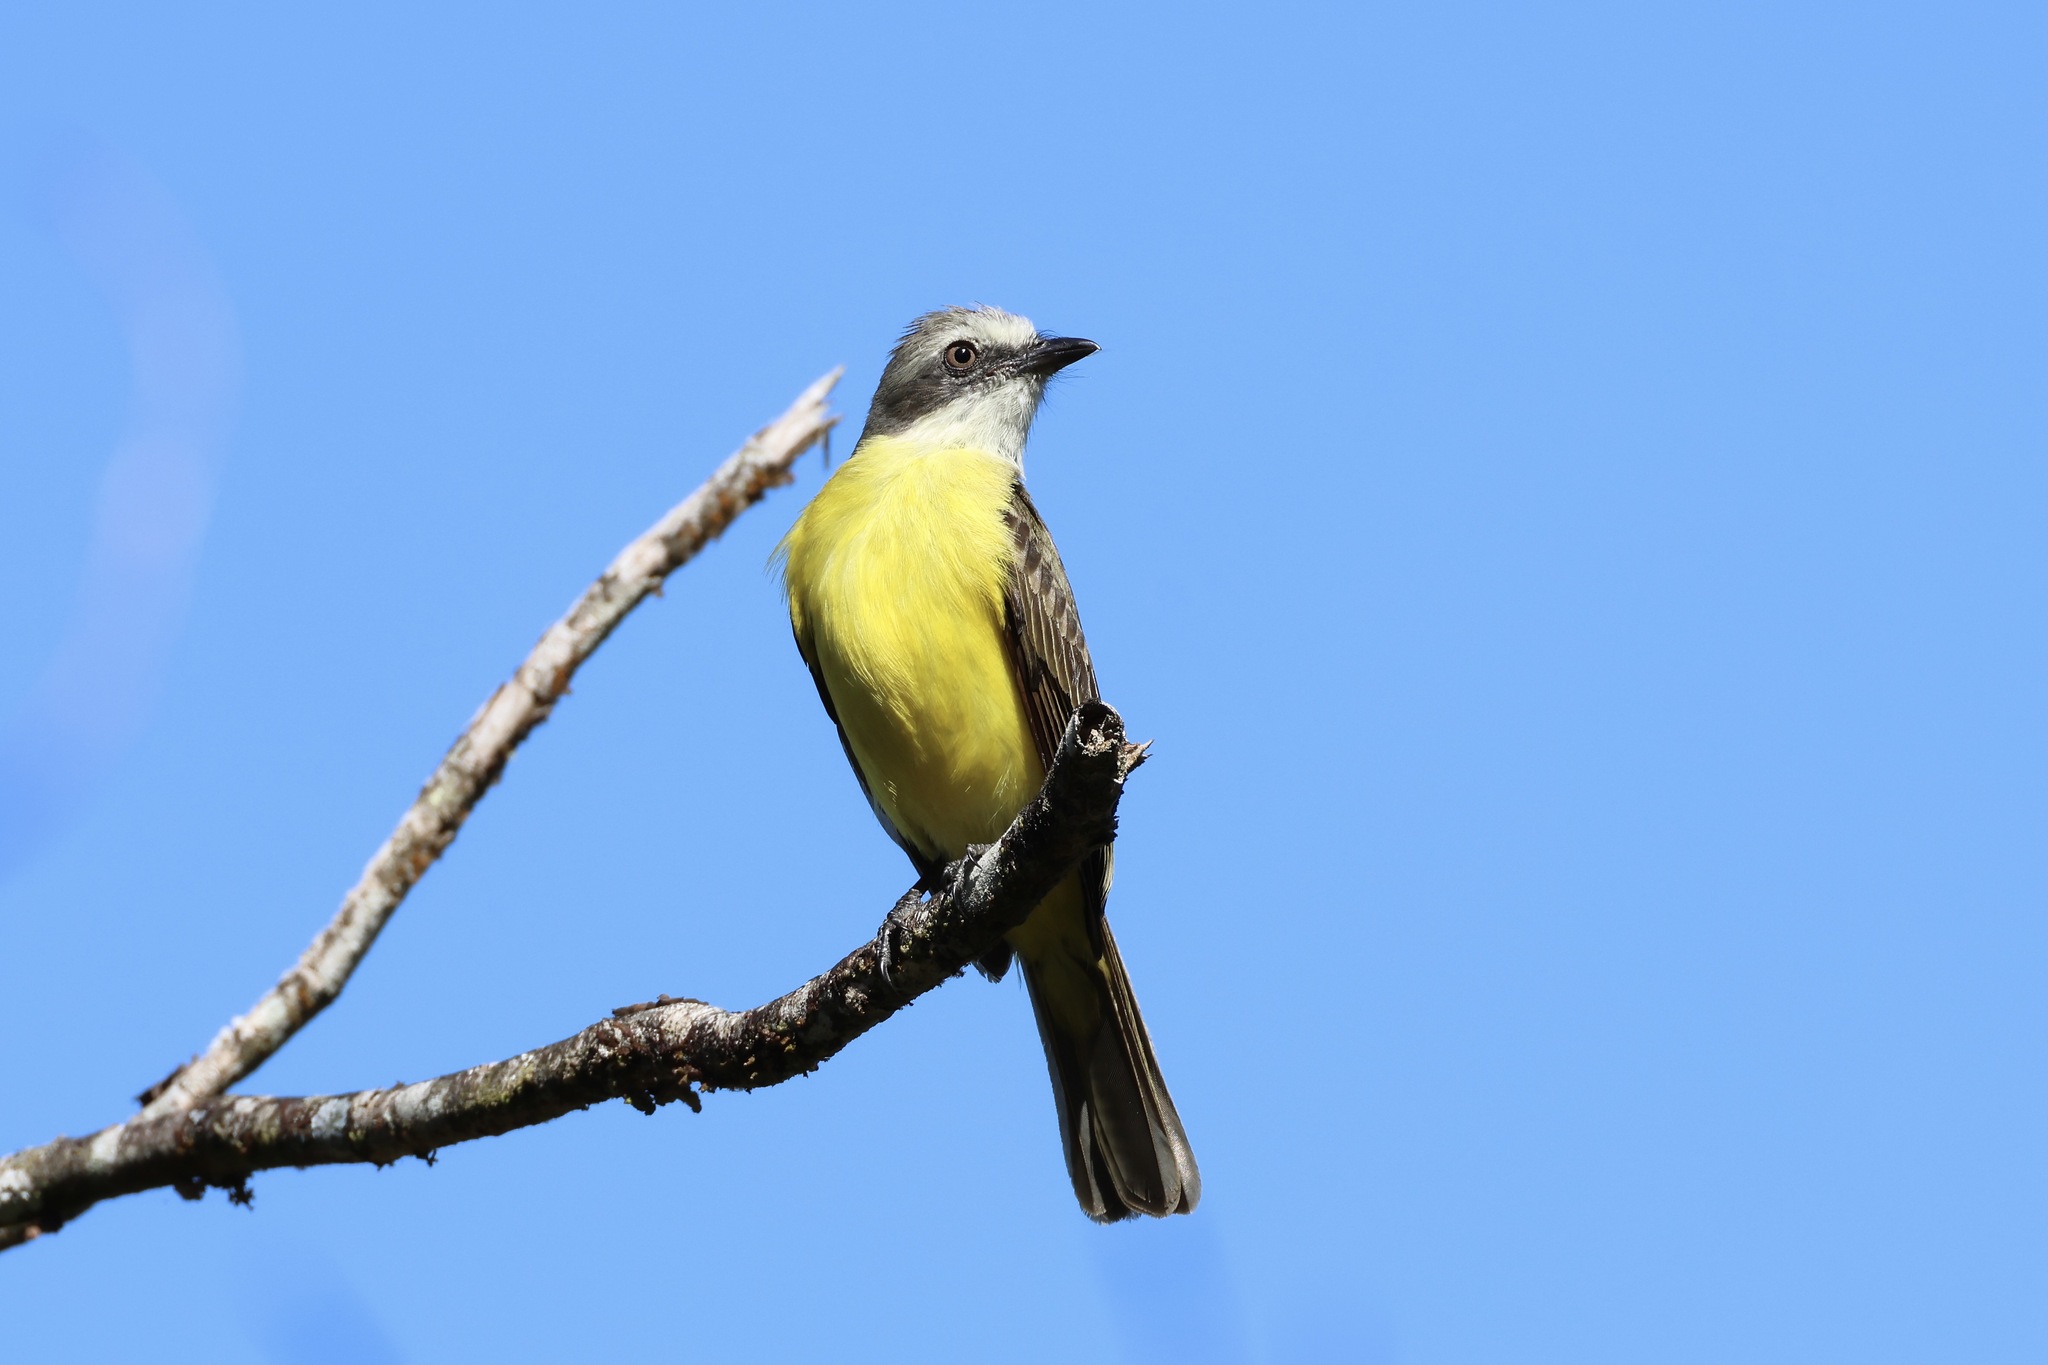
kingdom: Animalia
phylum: Chordata
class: Aves
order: Passeriformes
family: Tyrannidae
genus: Myiozetetes
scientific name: Myiozetetes granadensis
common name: Gray-capped flycatcher
